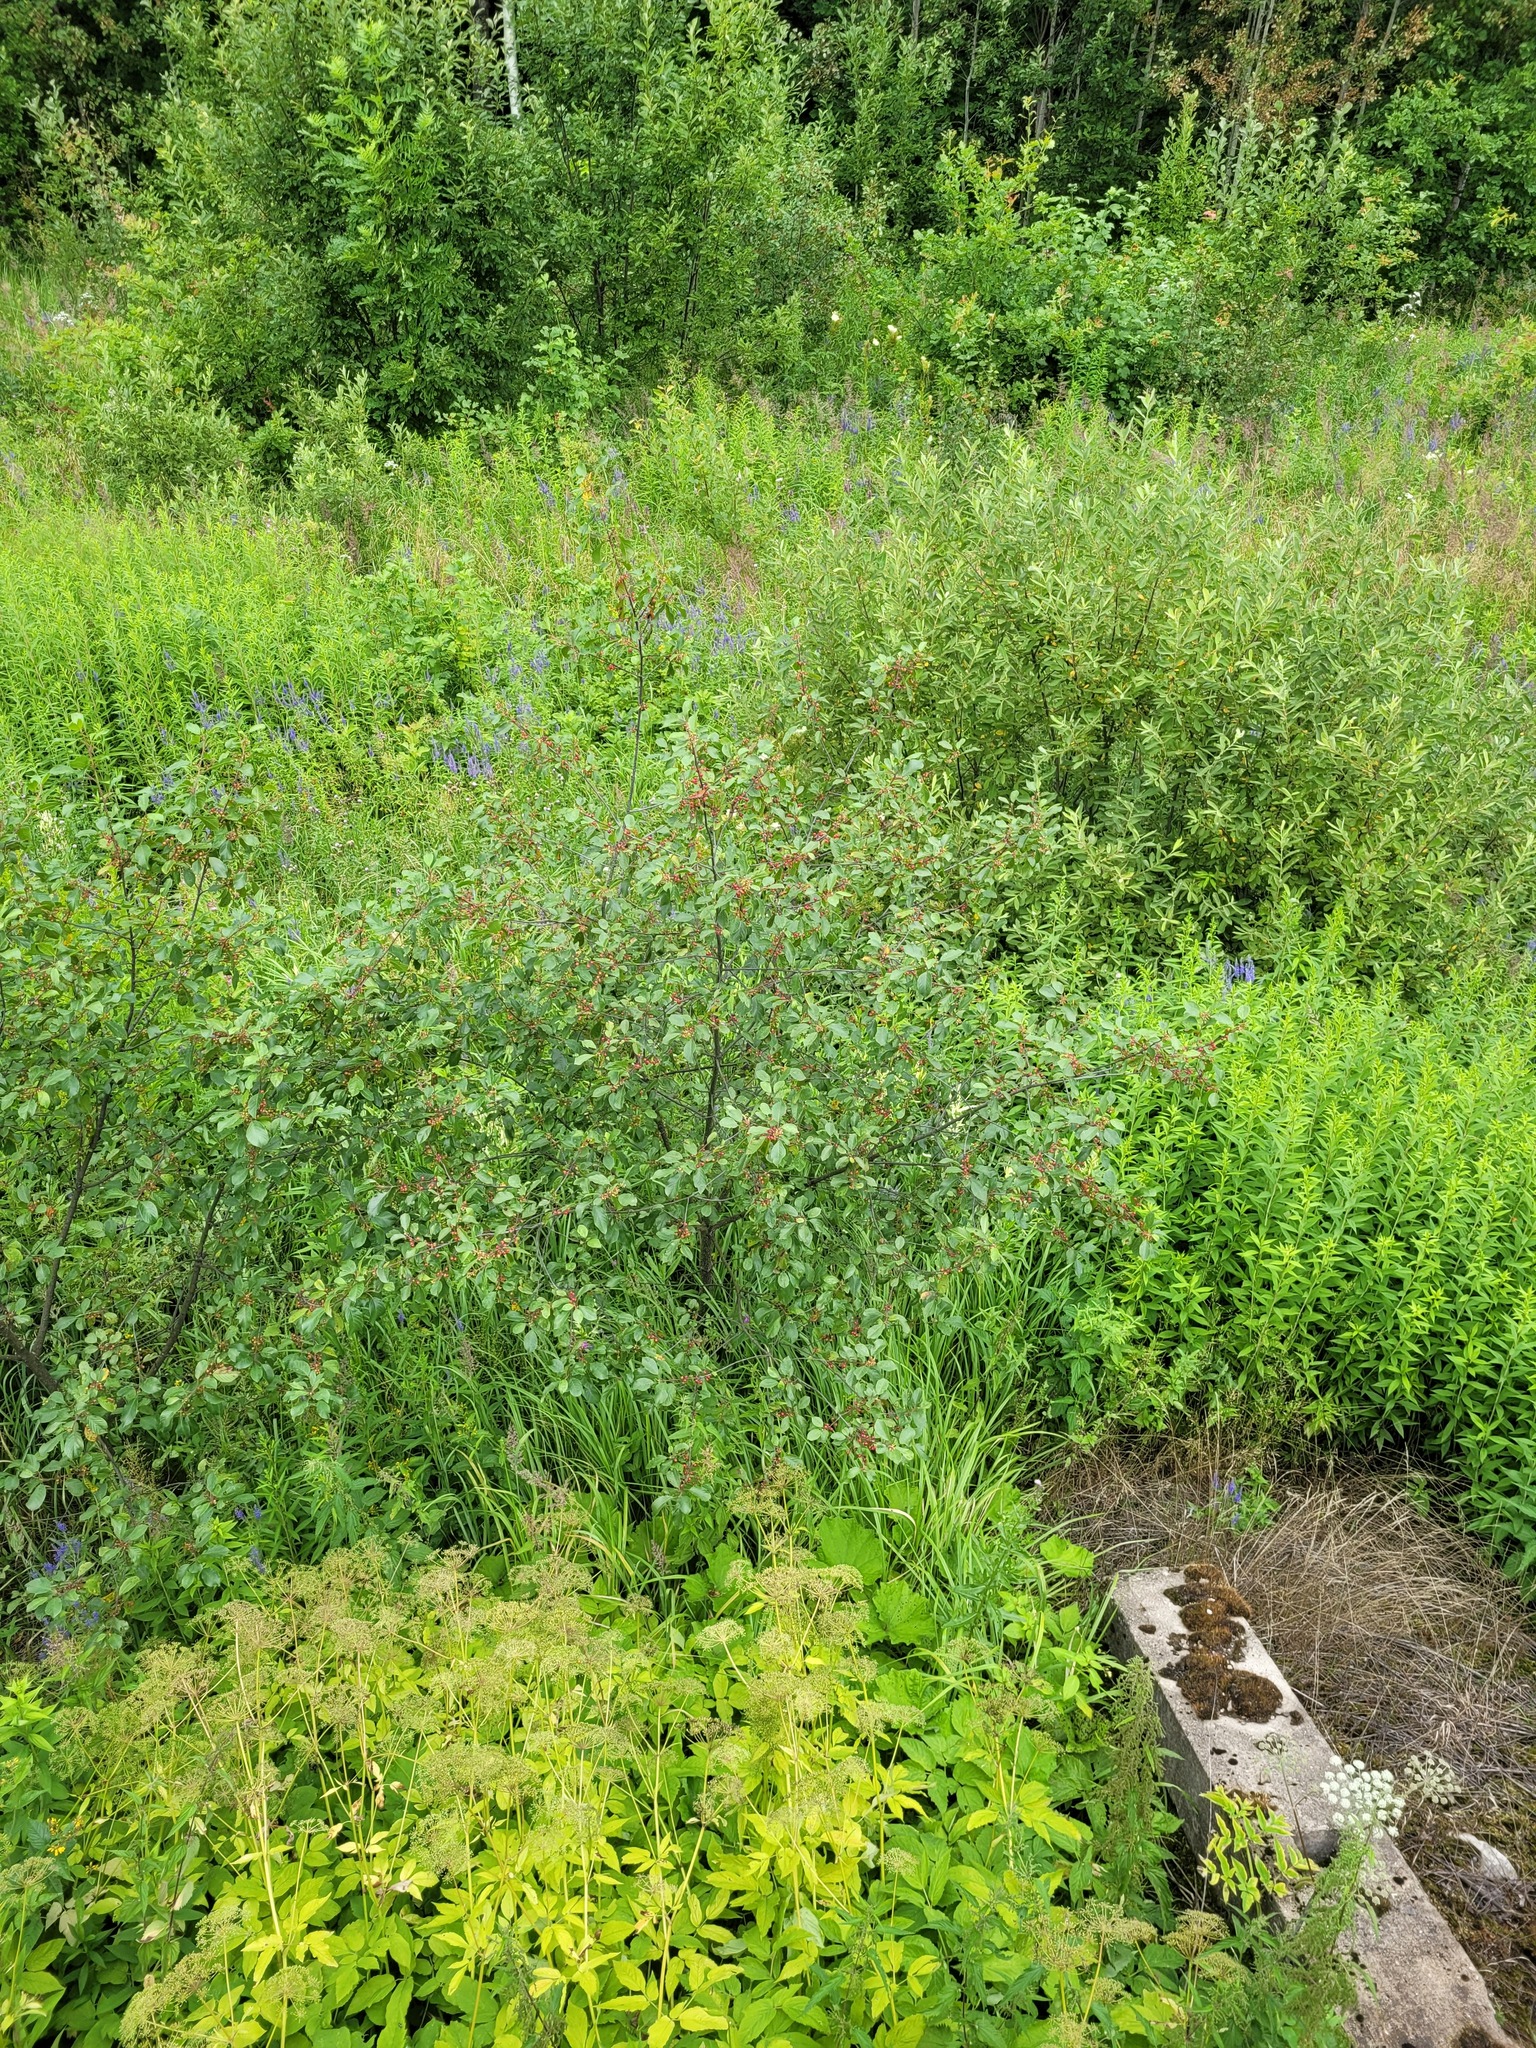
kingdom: Plantae
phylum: Tracheophyta
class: Magnoliopsida
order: Rosales
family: Rhamnaceae
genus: Frangula
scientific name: Frangula alnus
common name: Alder buckthorn
